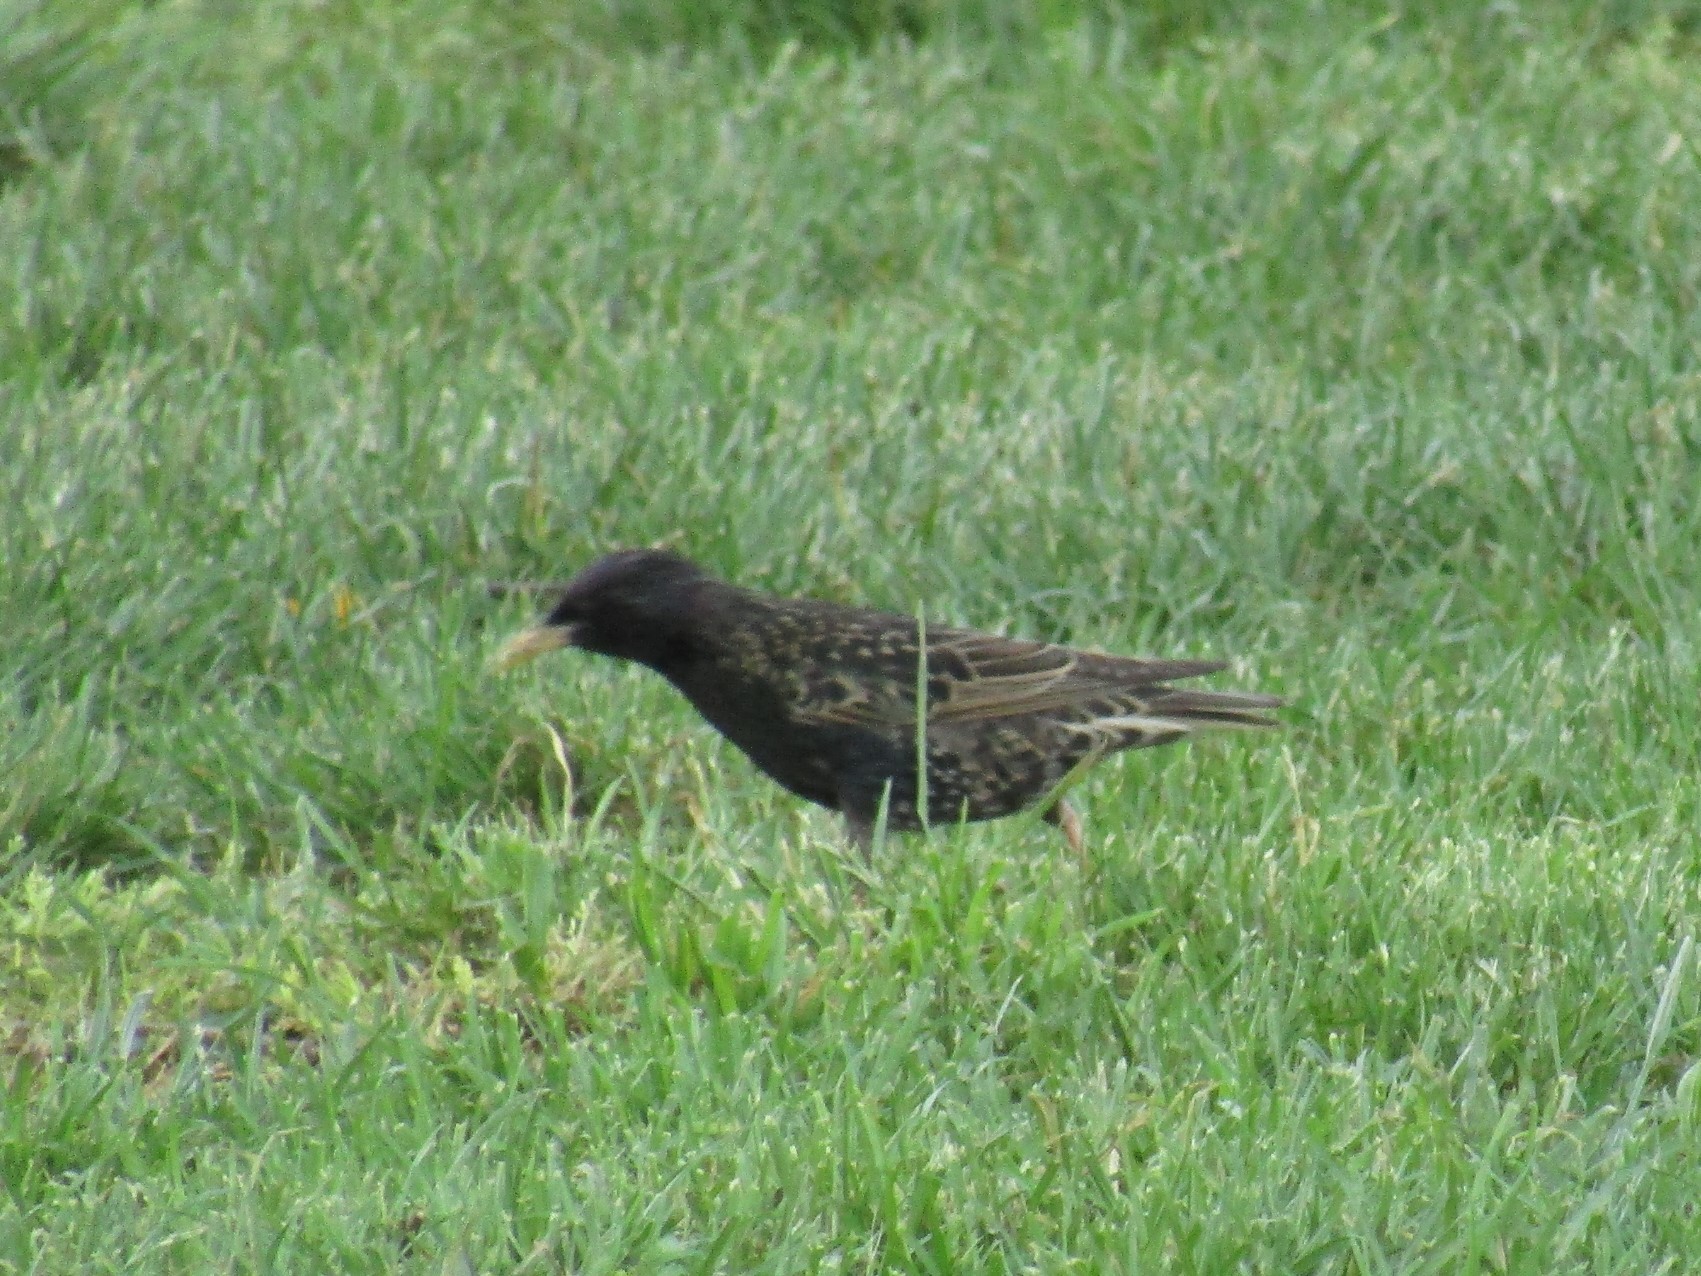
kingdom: Animalia
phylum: Chordata
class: Aves
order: Passeriformes
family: Sturnidae
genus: Sturnus
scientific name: Sturnus vulgaris
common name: Common starling
